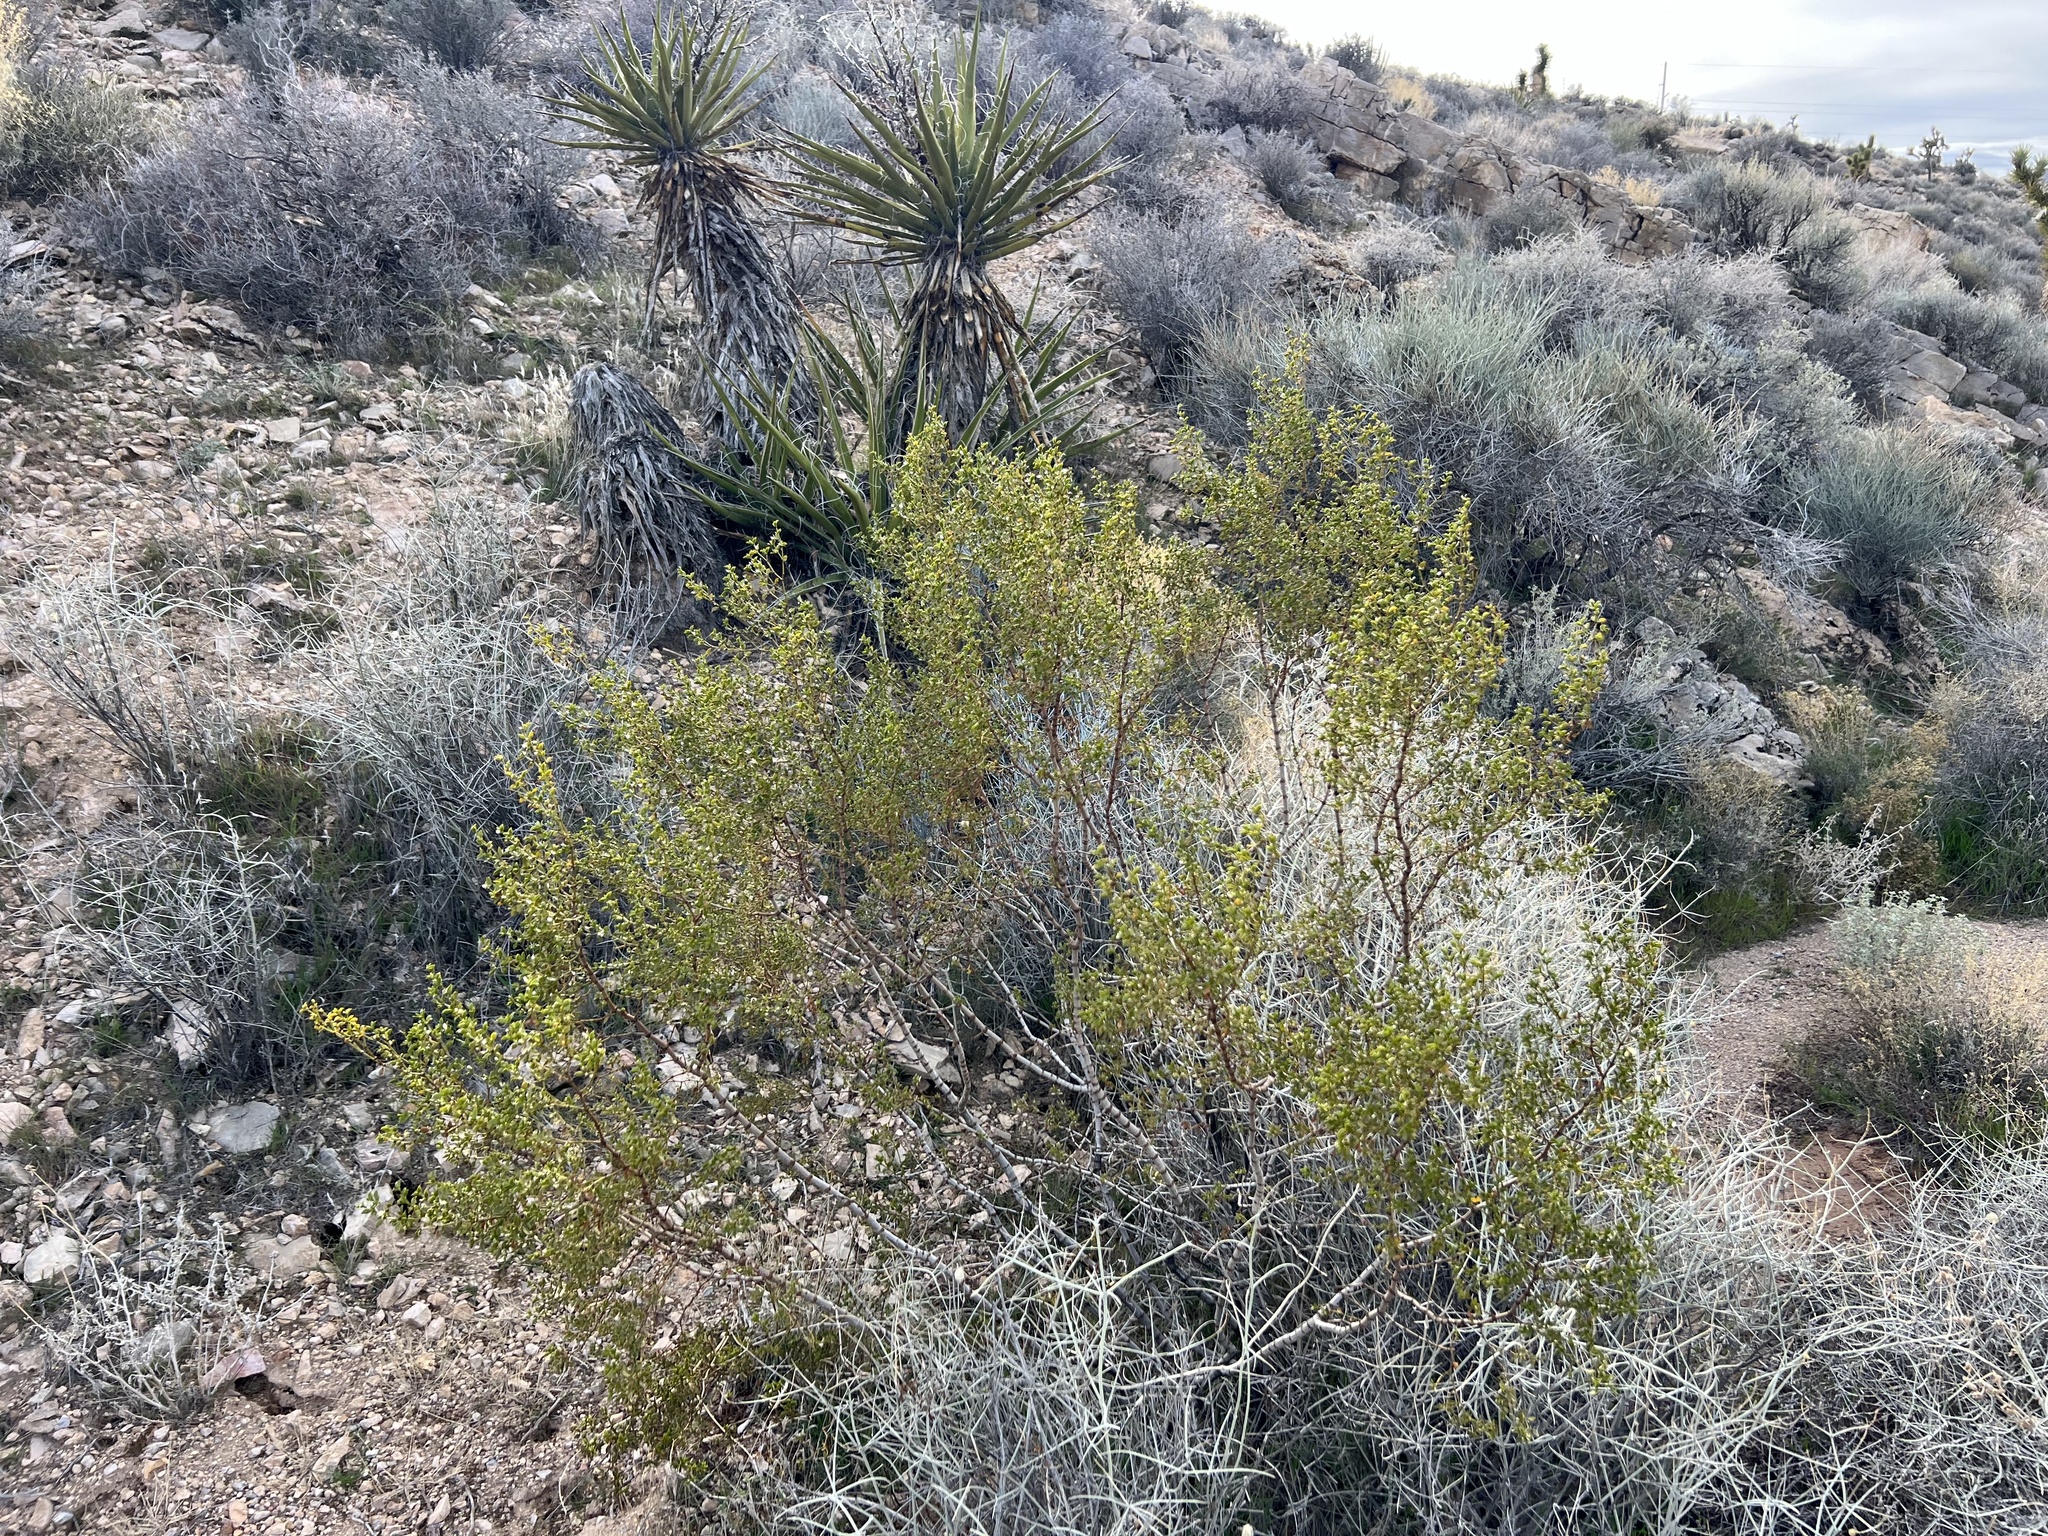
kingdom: Plantae
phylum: Tracheophyta
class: Magnoliopsida
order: Zygophyllales
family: Zygophyllaceae
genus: Larrea
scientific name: Larrea tridentata
